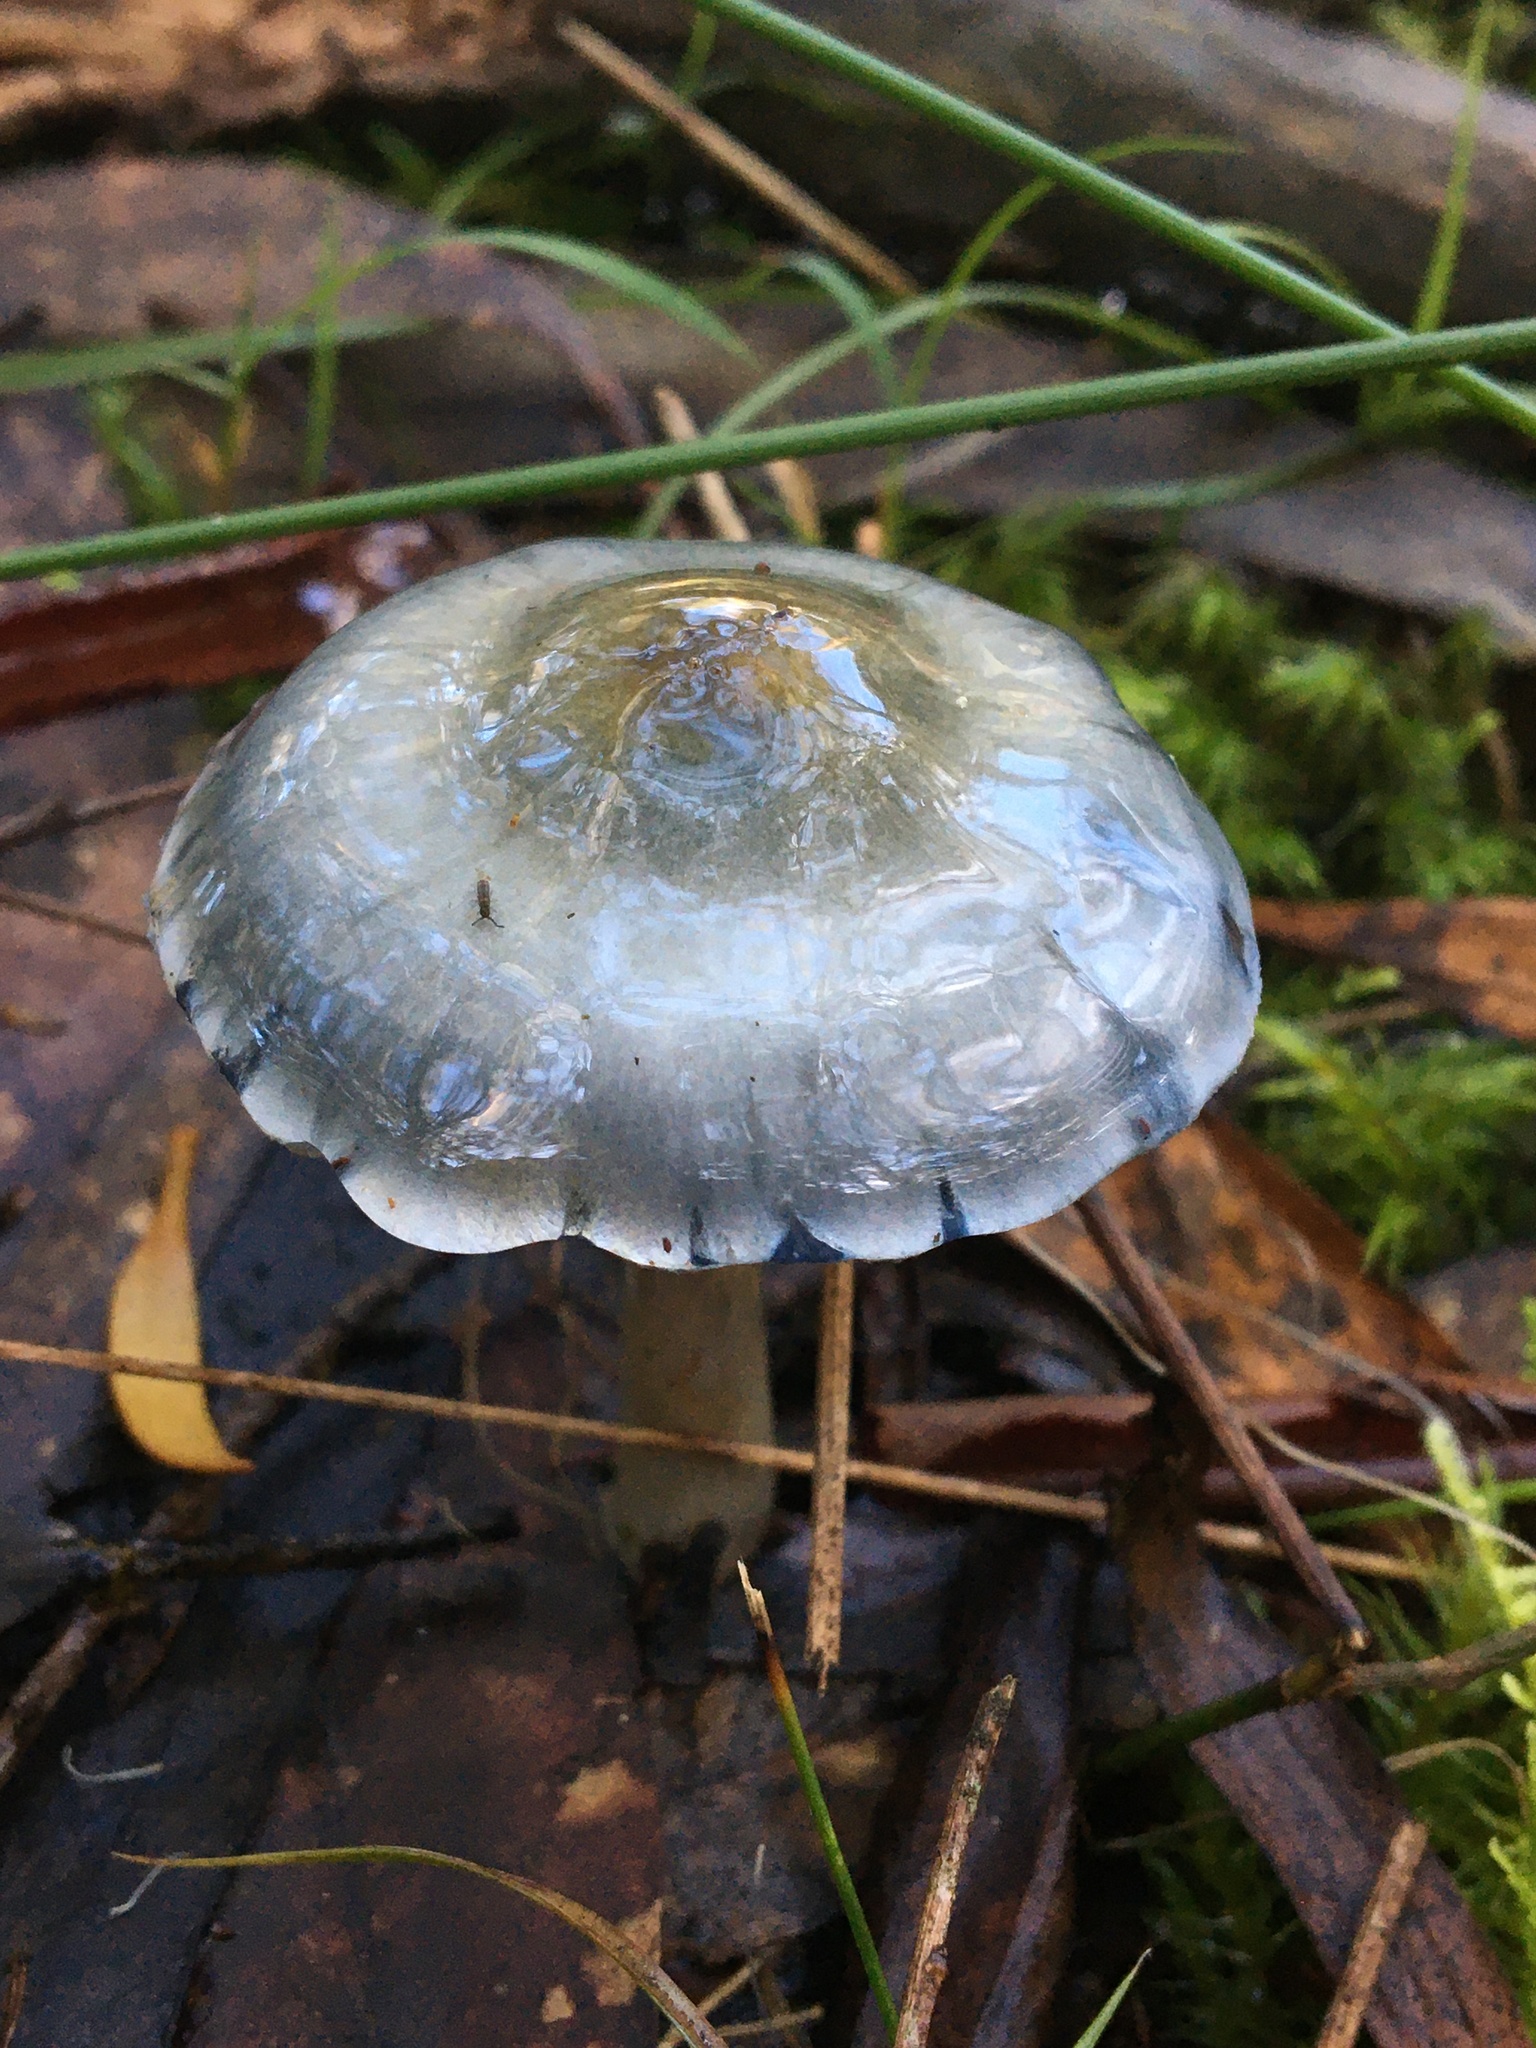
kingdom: Fungi
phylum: Basidiomycota
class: Agaricomycetes
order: Agaricales
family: Cortinariaceae
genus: Cortinarius
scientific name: Cortinarius rotundisporus
